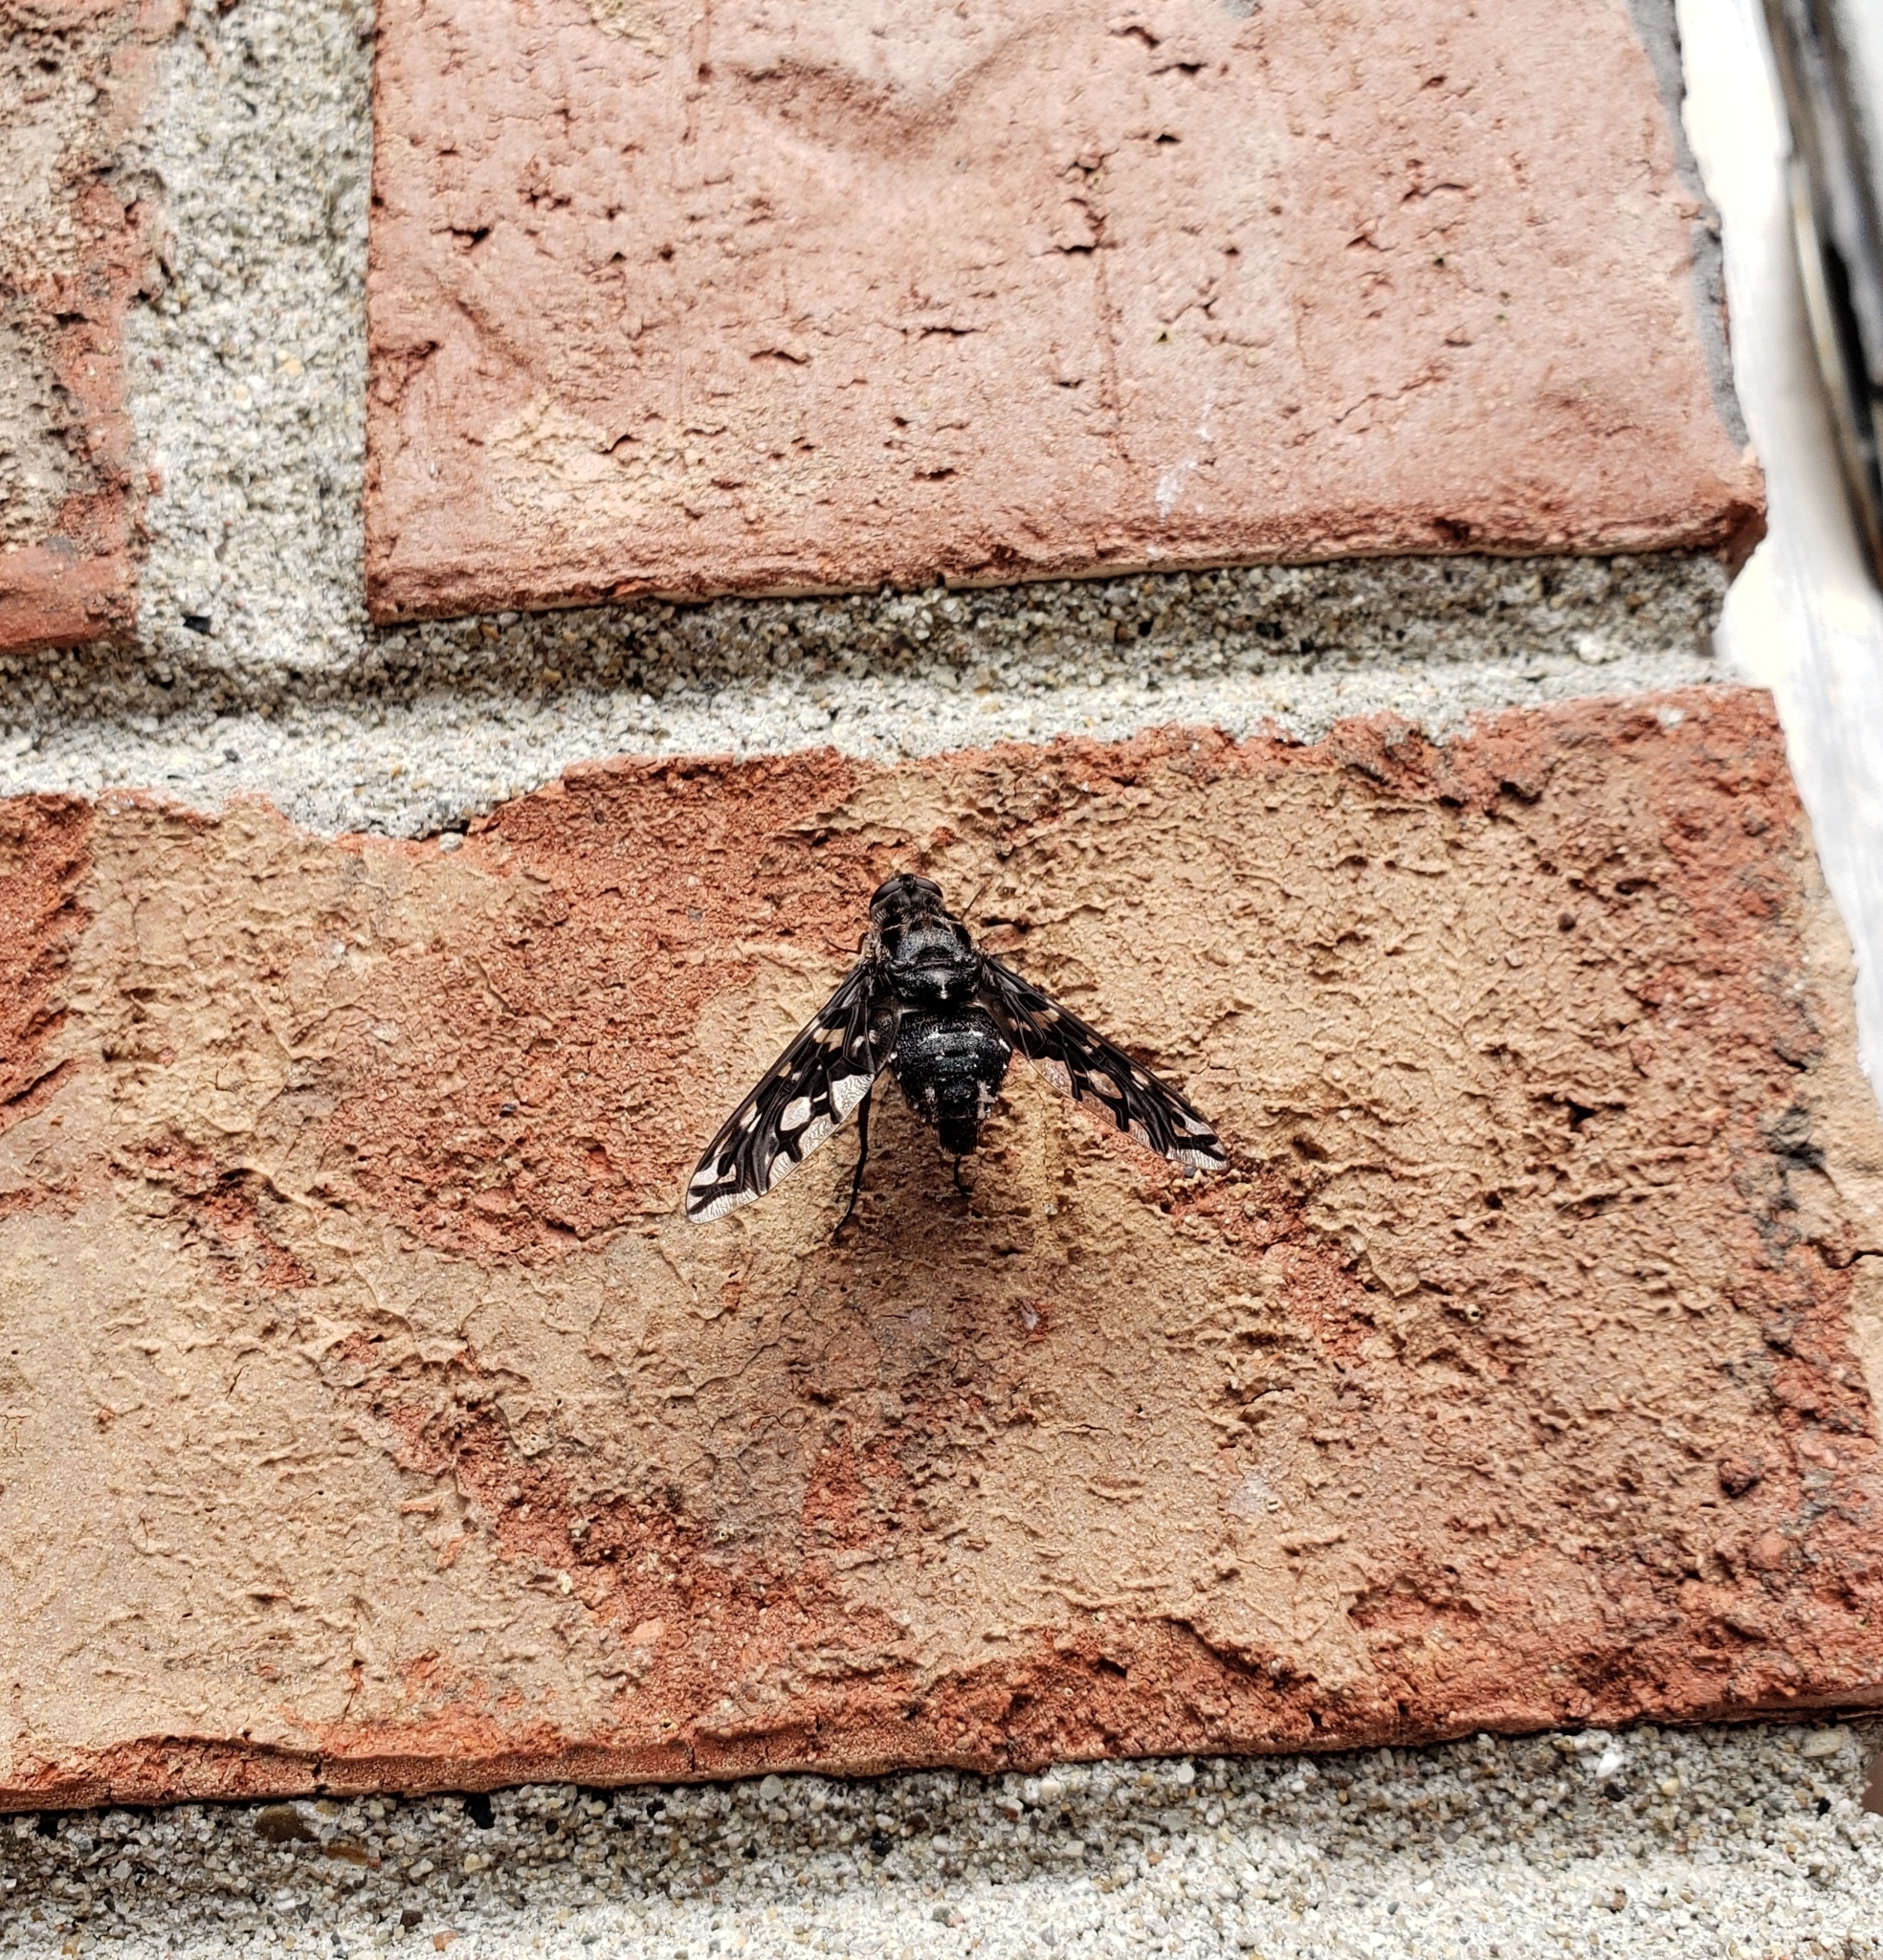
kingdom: Animalia
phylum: Arthropoda
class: Insecta
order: Diptera
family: Bombyliidae
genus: Xenox
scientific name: Xenox tigrinus
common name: Tiger bee fly
